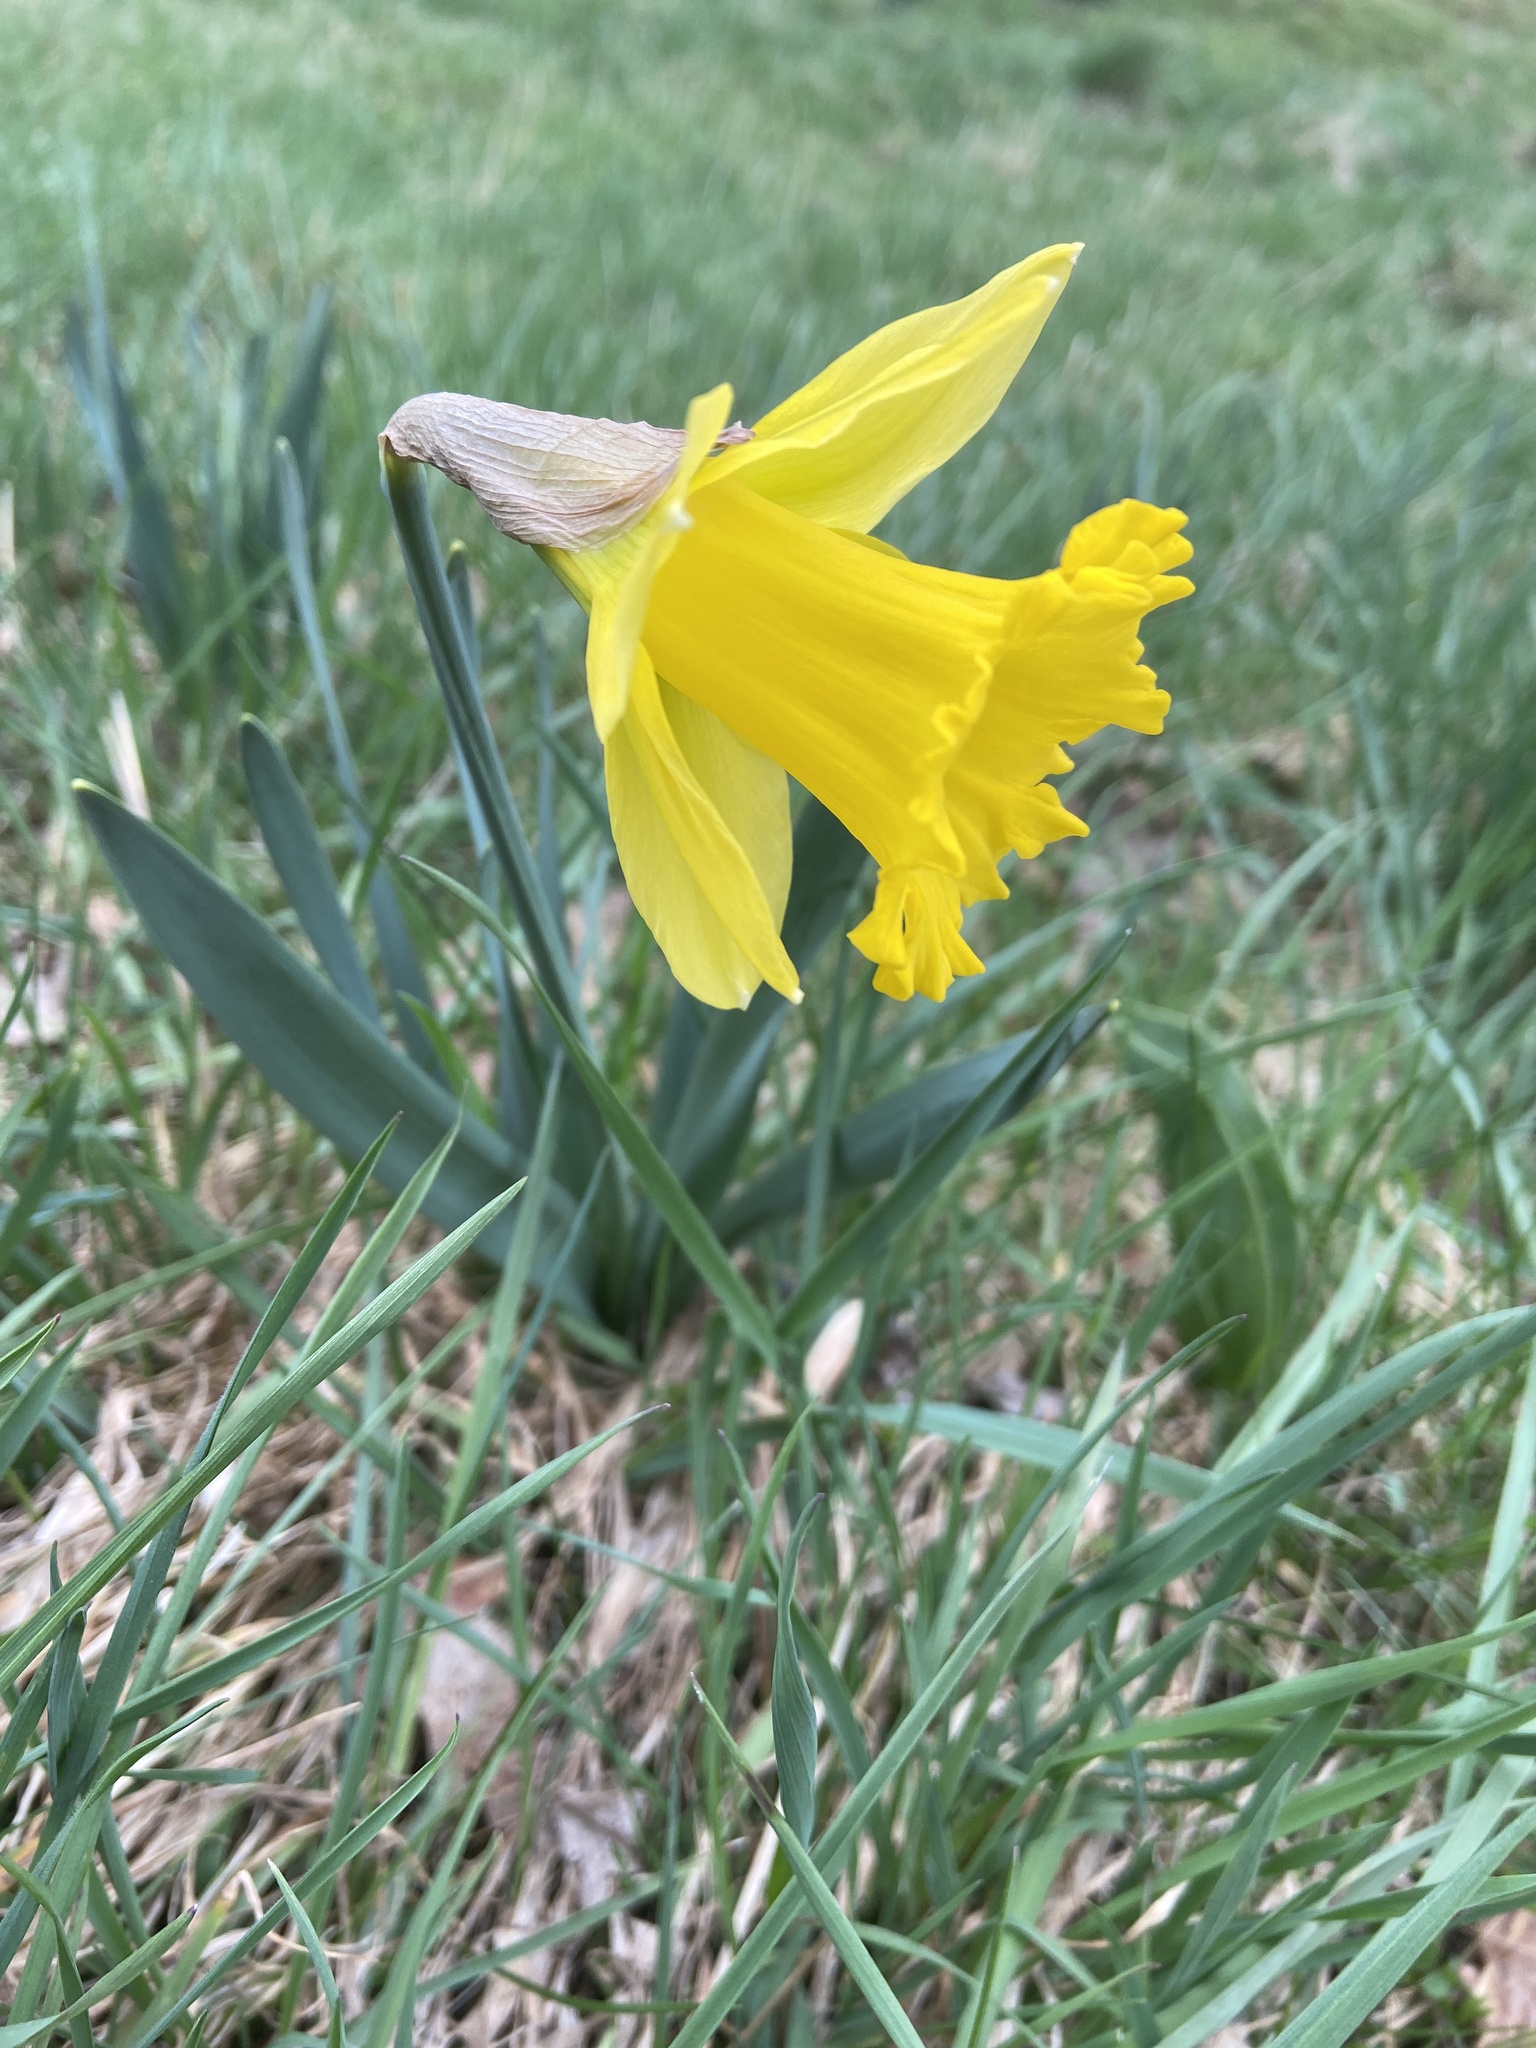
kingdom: Plantae
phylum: Tracheophyta
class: Liliopsida
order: Asparagales
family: Amaryllidaceae
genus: Narcissus
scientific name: Narcissus pseudonarcissus
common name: Daffodil
